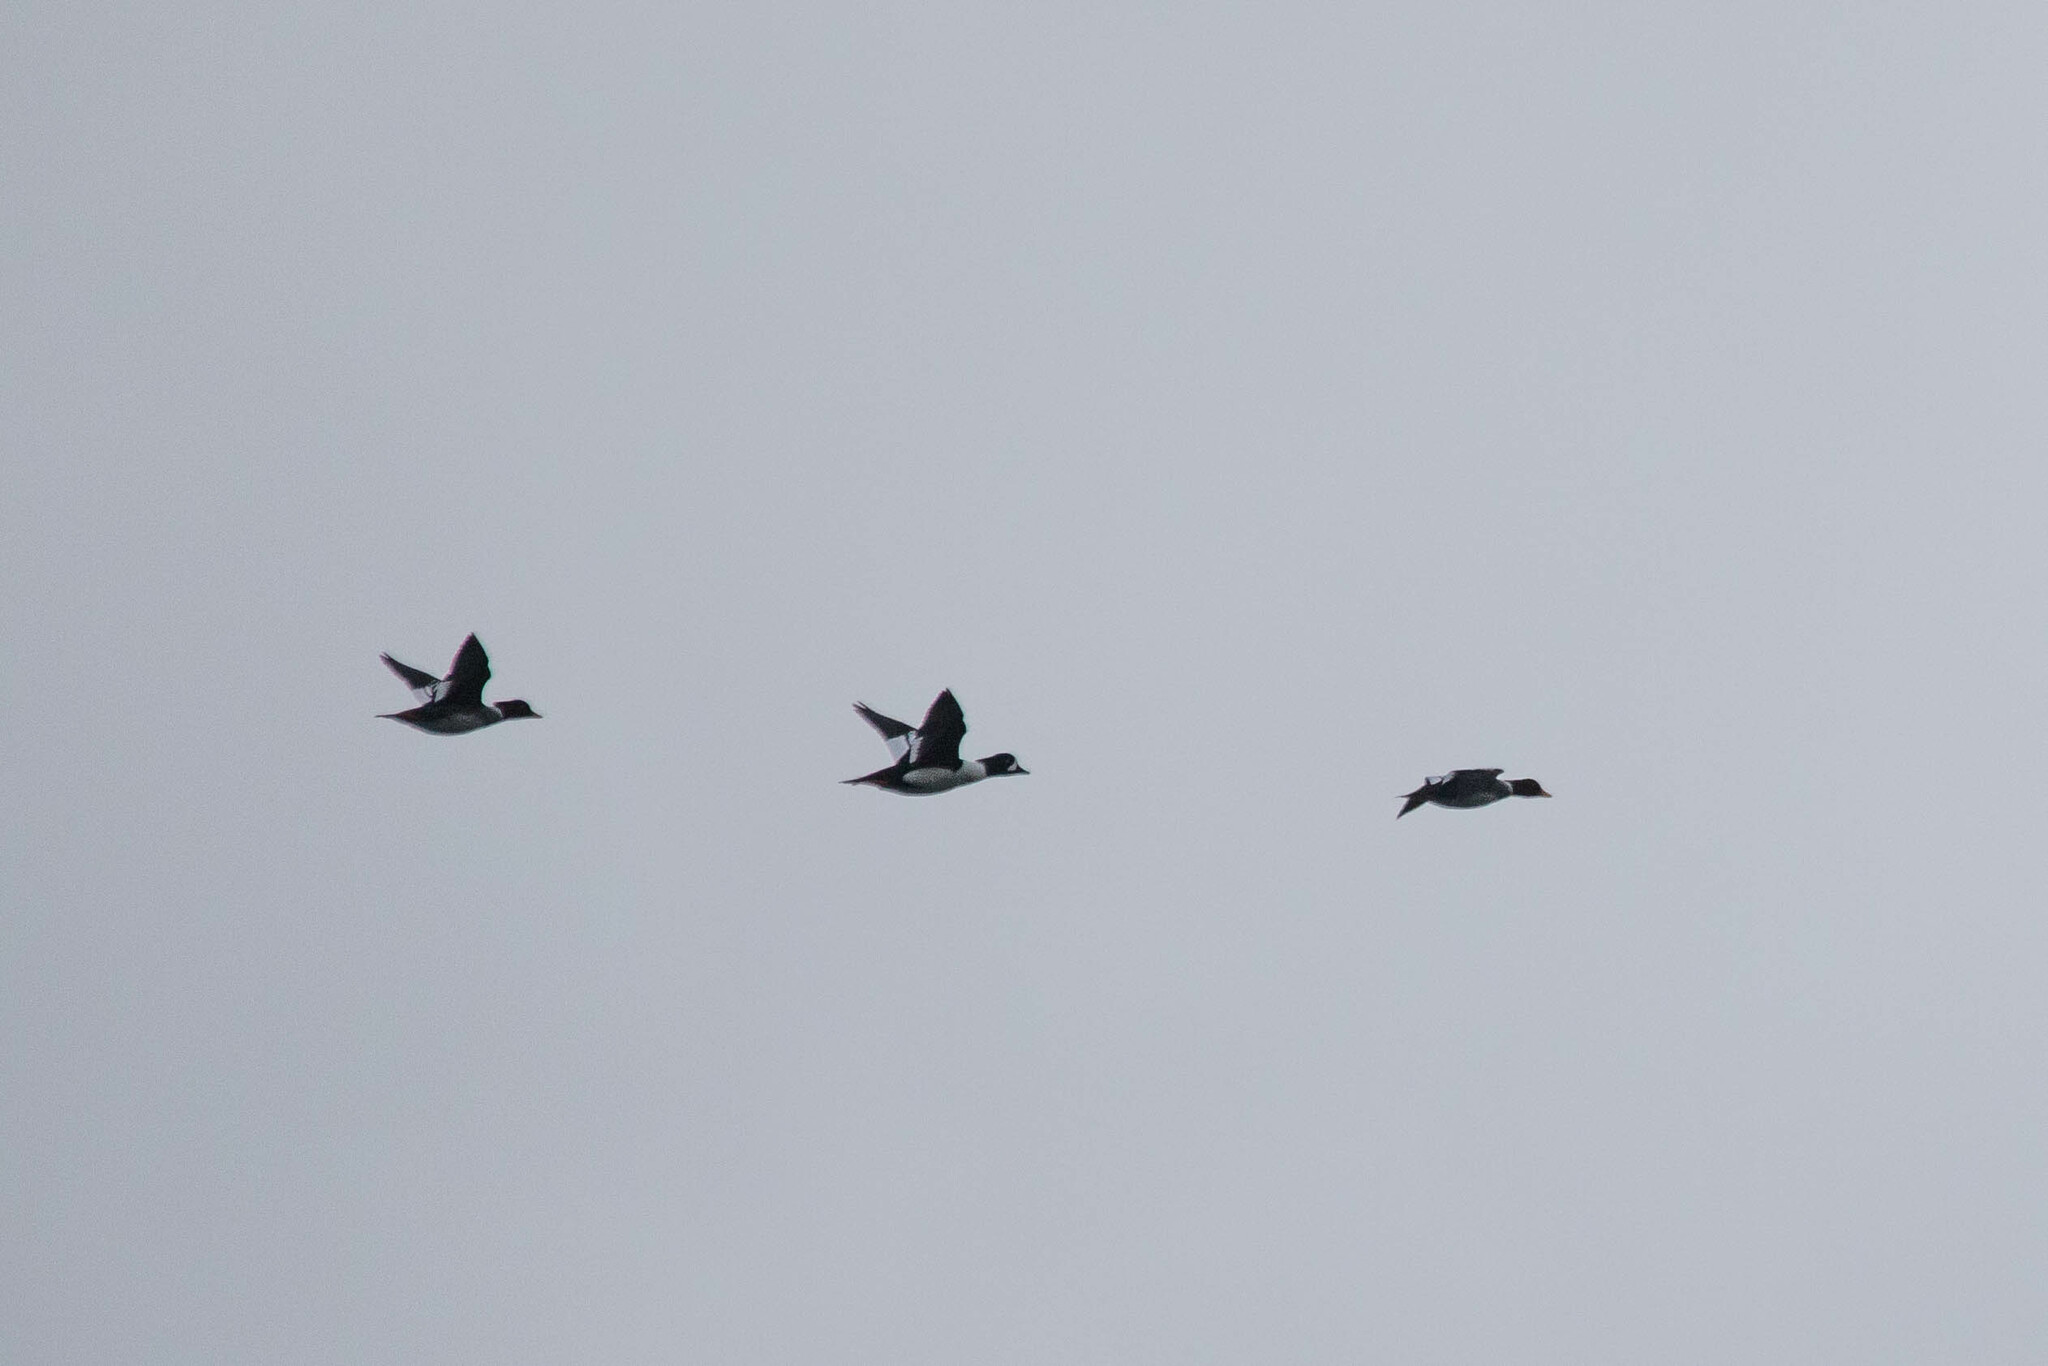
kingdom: Animalia
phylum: Chordata
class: Aves
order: Anseriformes
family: Anatidae
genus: Bucephala
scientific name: Bucephala islandica
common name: Barrow's goldeneye
